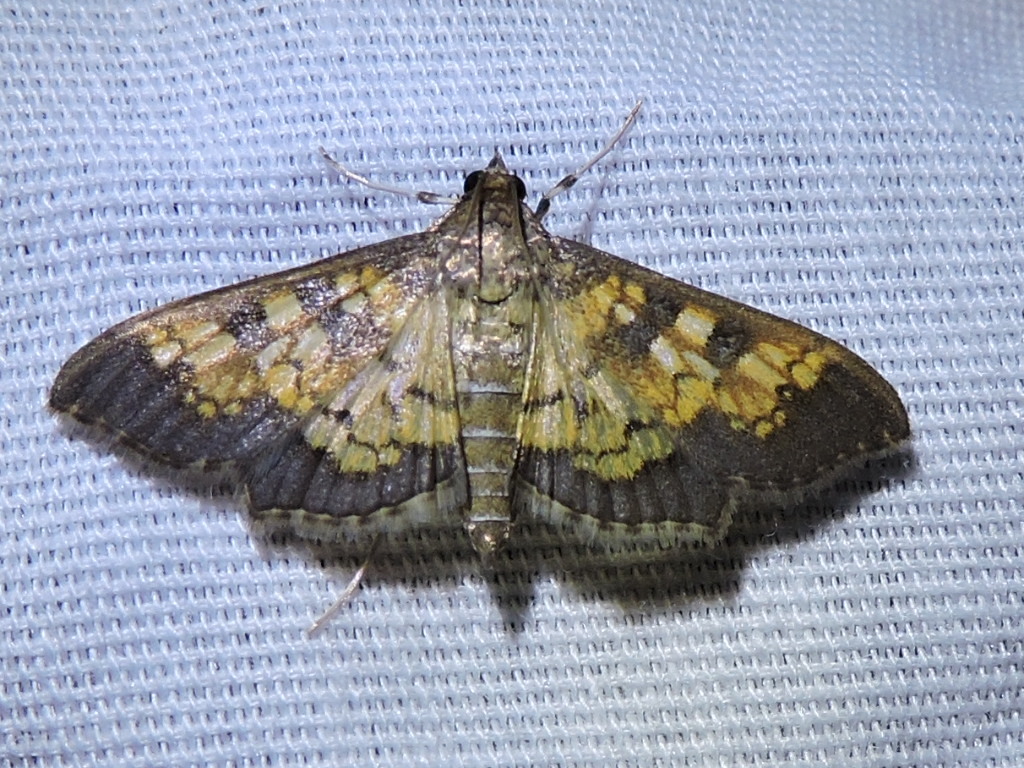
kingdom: Animalia
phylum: Arthropoda
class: Insecta
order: Lepidoptera
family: Crambidae
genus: Cryptographis
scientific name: Cryptographis elealis
